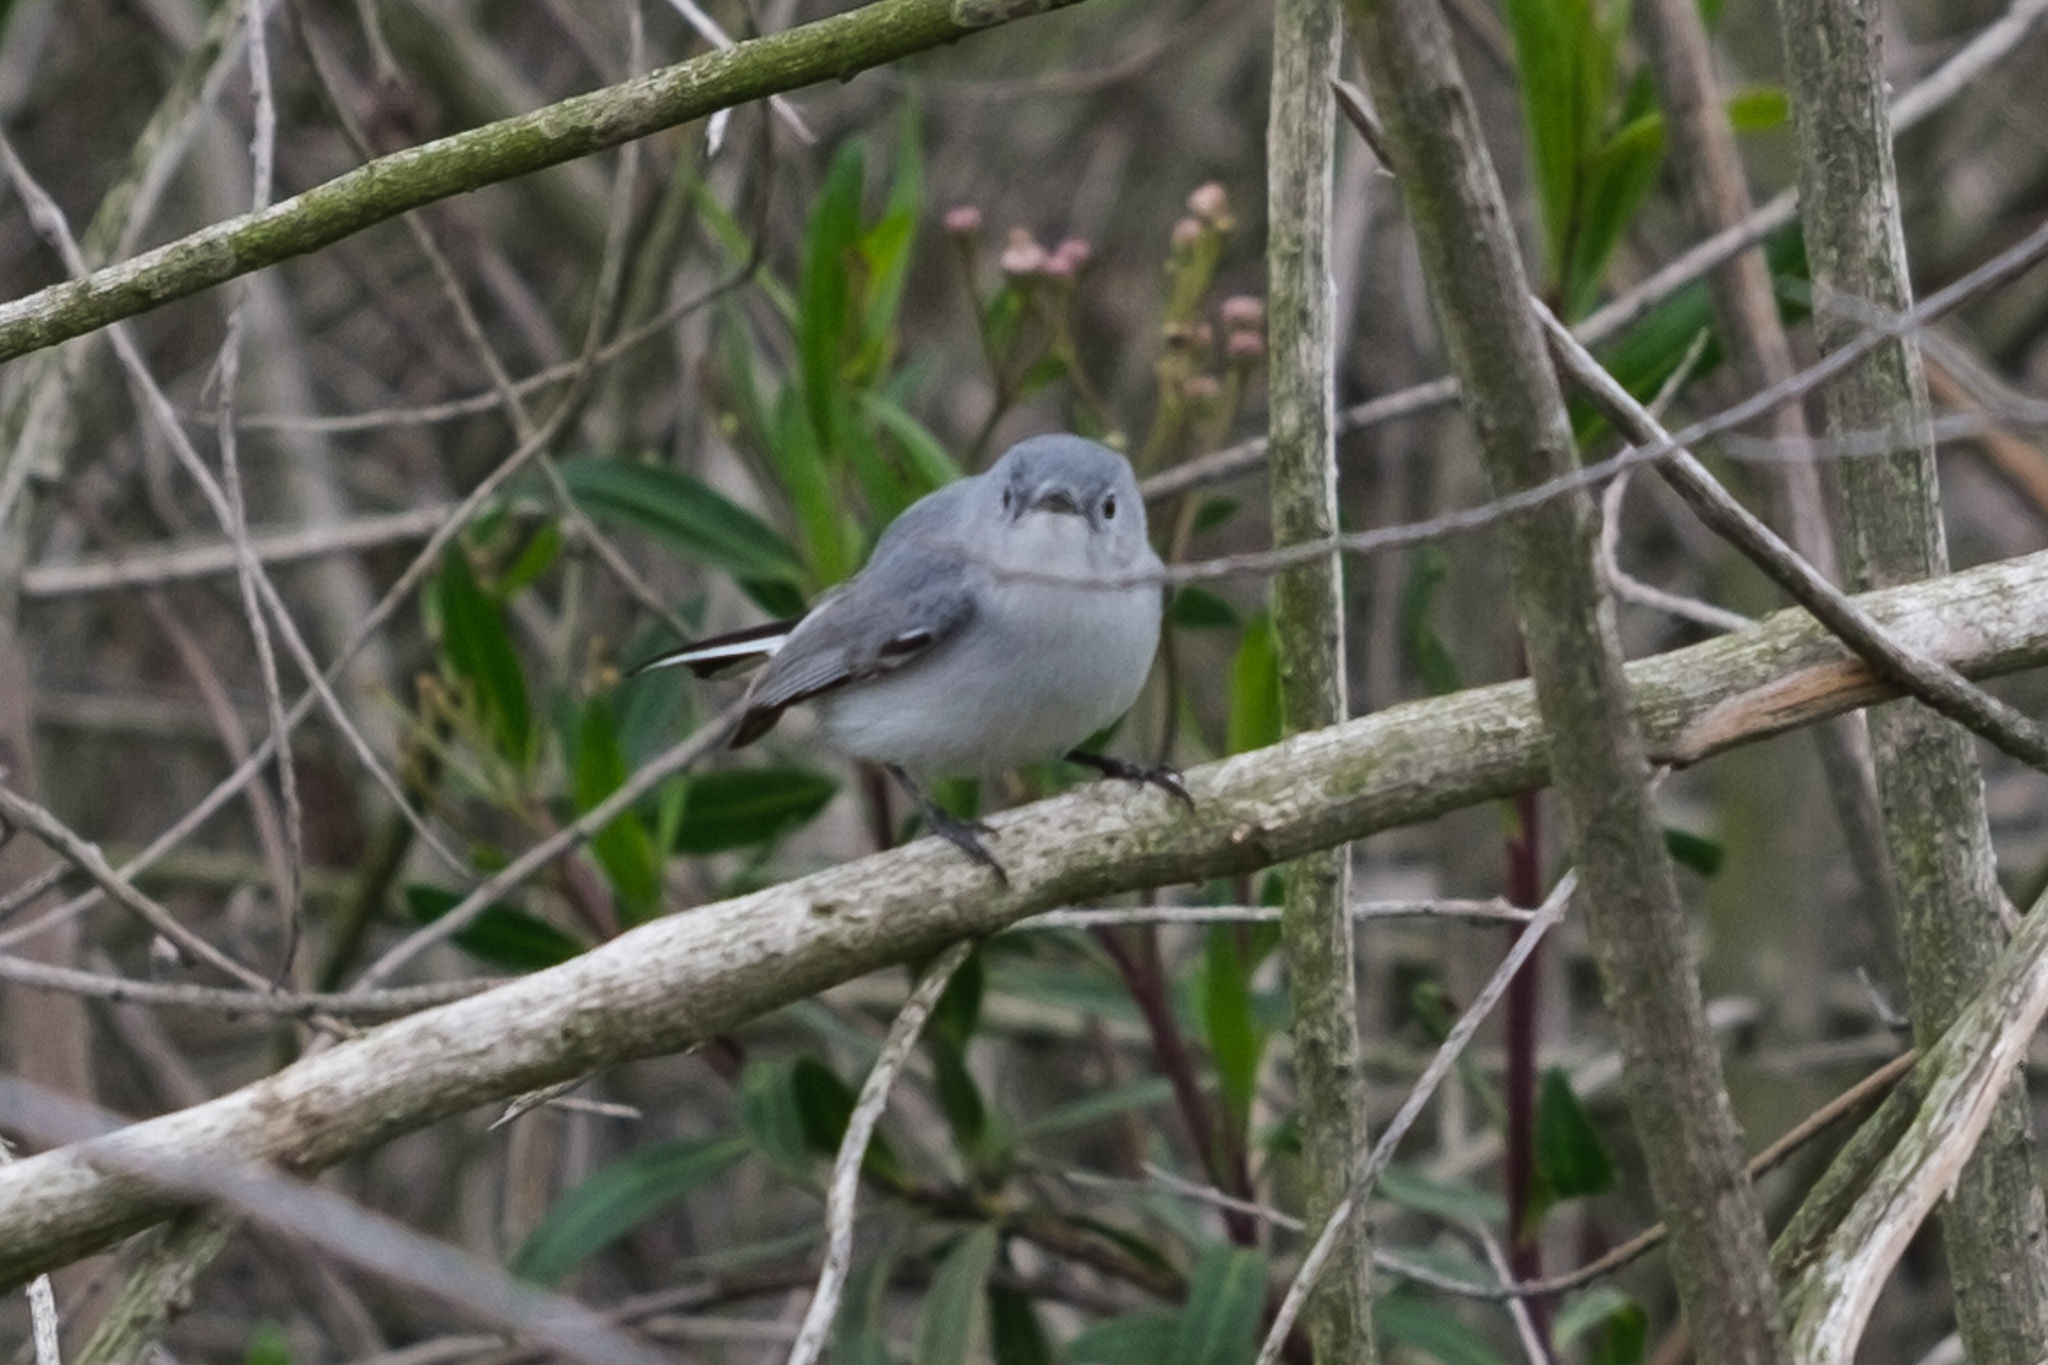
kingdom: Animalia
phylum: Chordata
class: Aves
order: Passeriformes
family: Polioptilidae
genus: Polioptila
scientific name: Polioptila caerulea
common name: Blue-gray gnatcatcher
